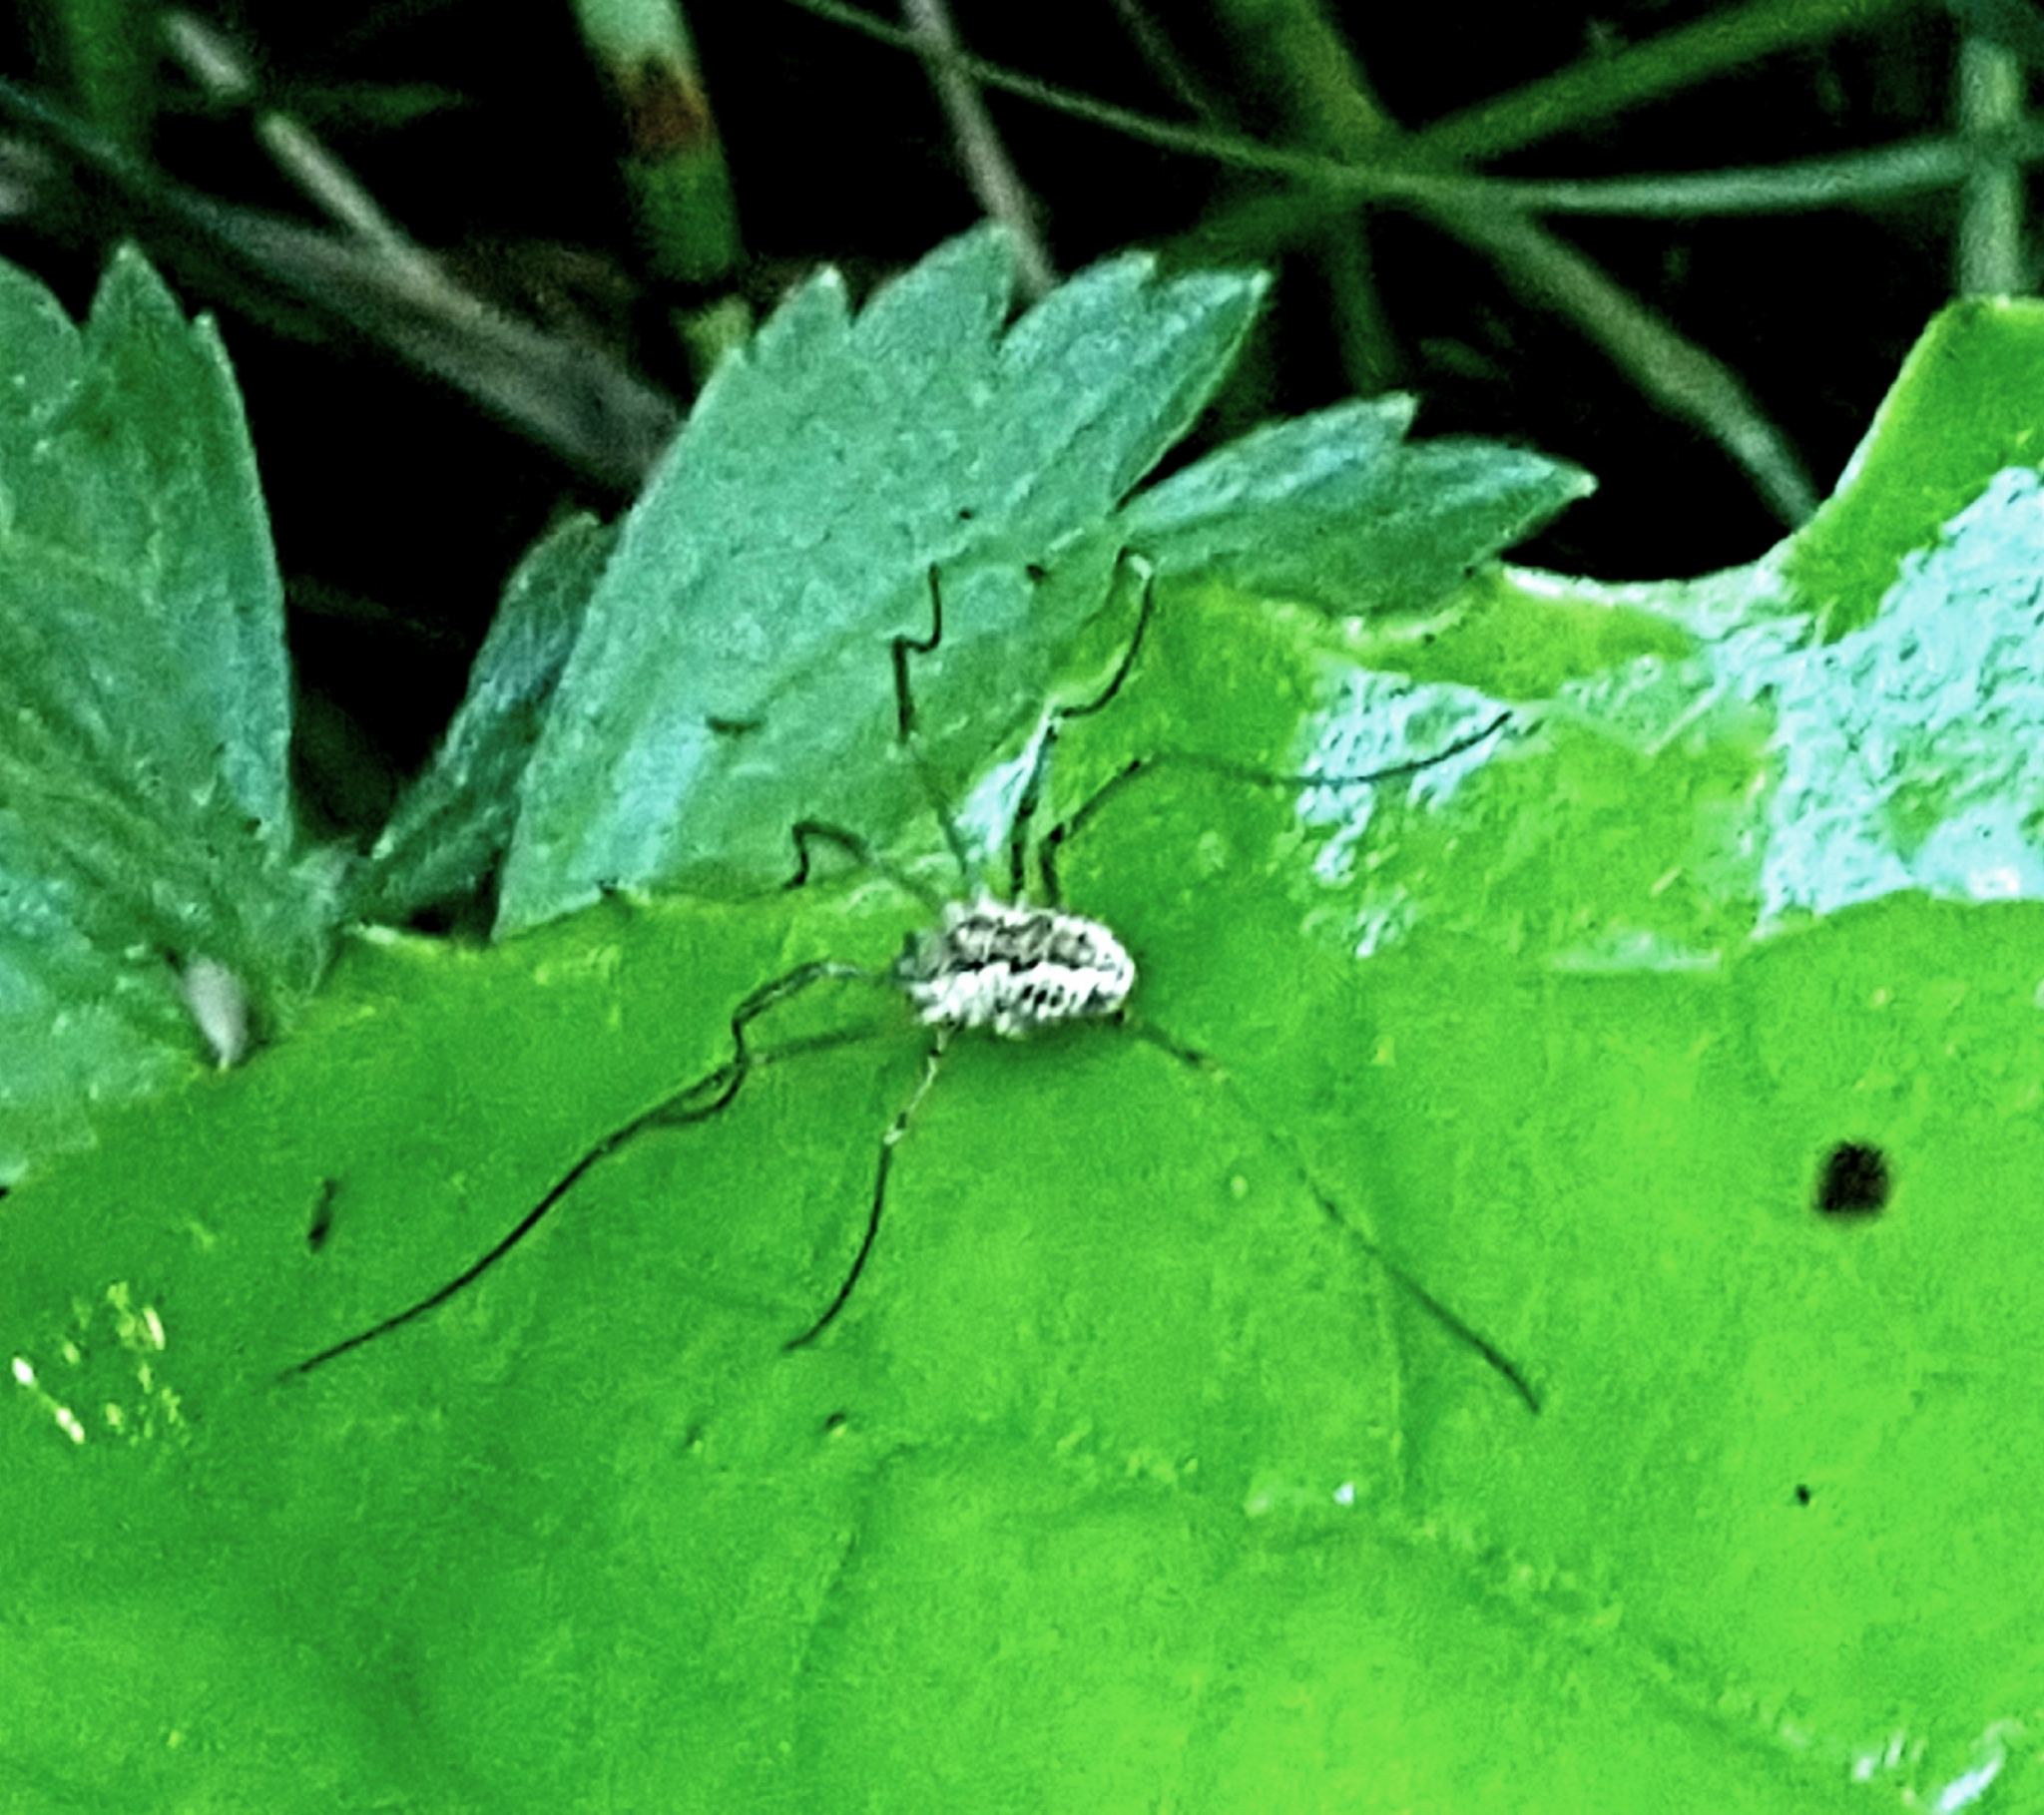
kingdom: Animalia
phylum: Arthropoda
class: Arachnida
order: Opiliones
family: Phalangiidae
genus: Mitopus
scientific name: Mitopus morio
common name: Saddleback harvestman
